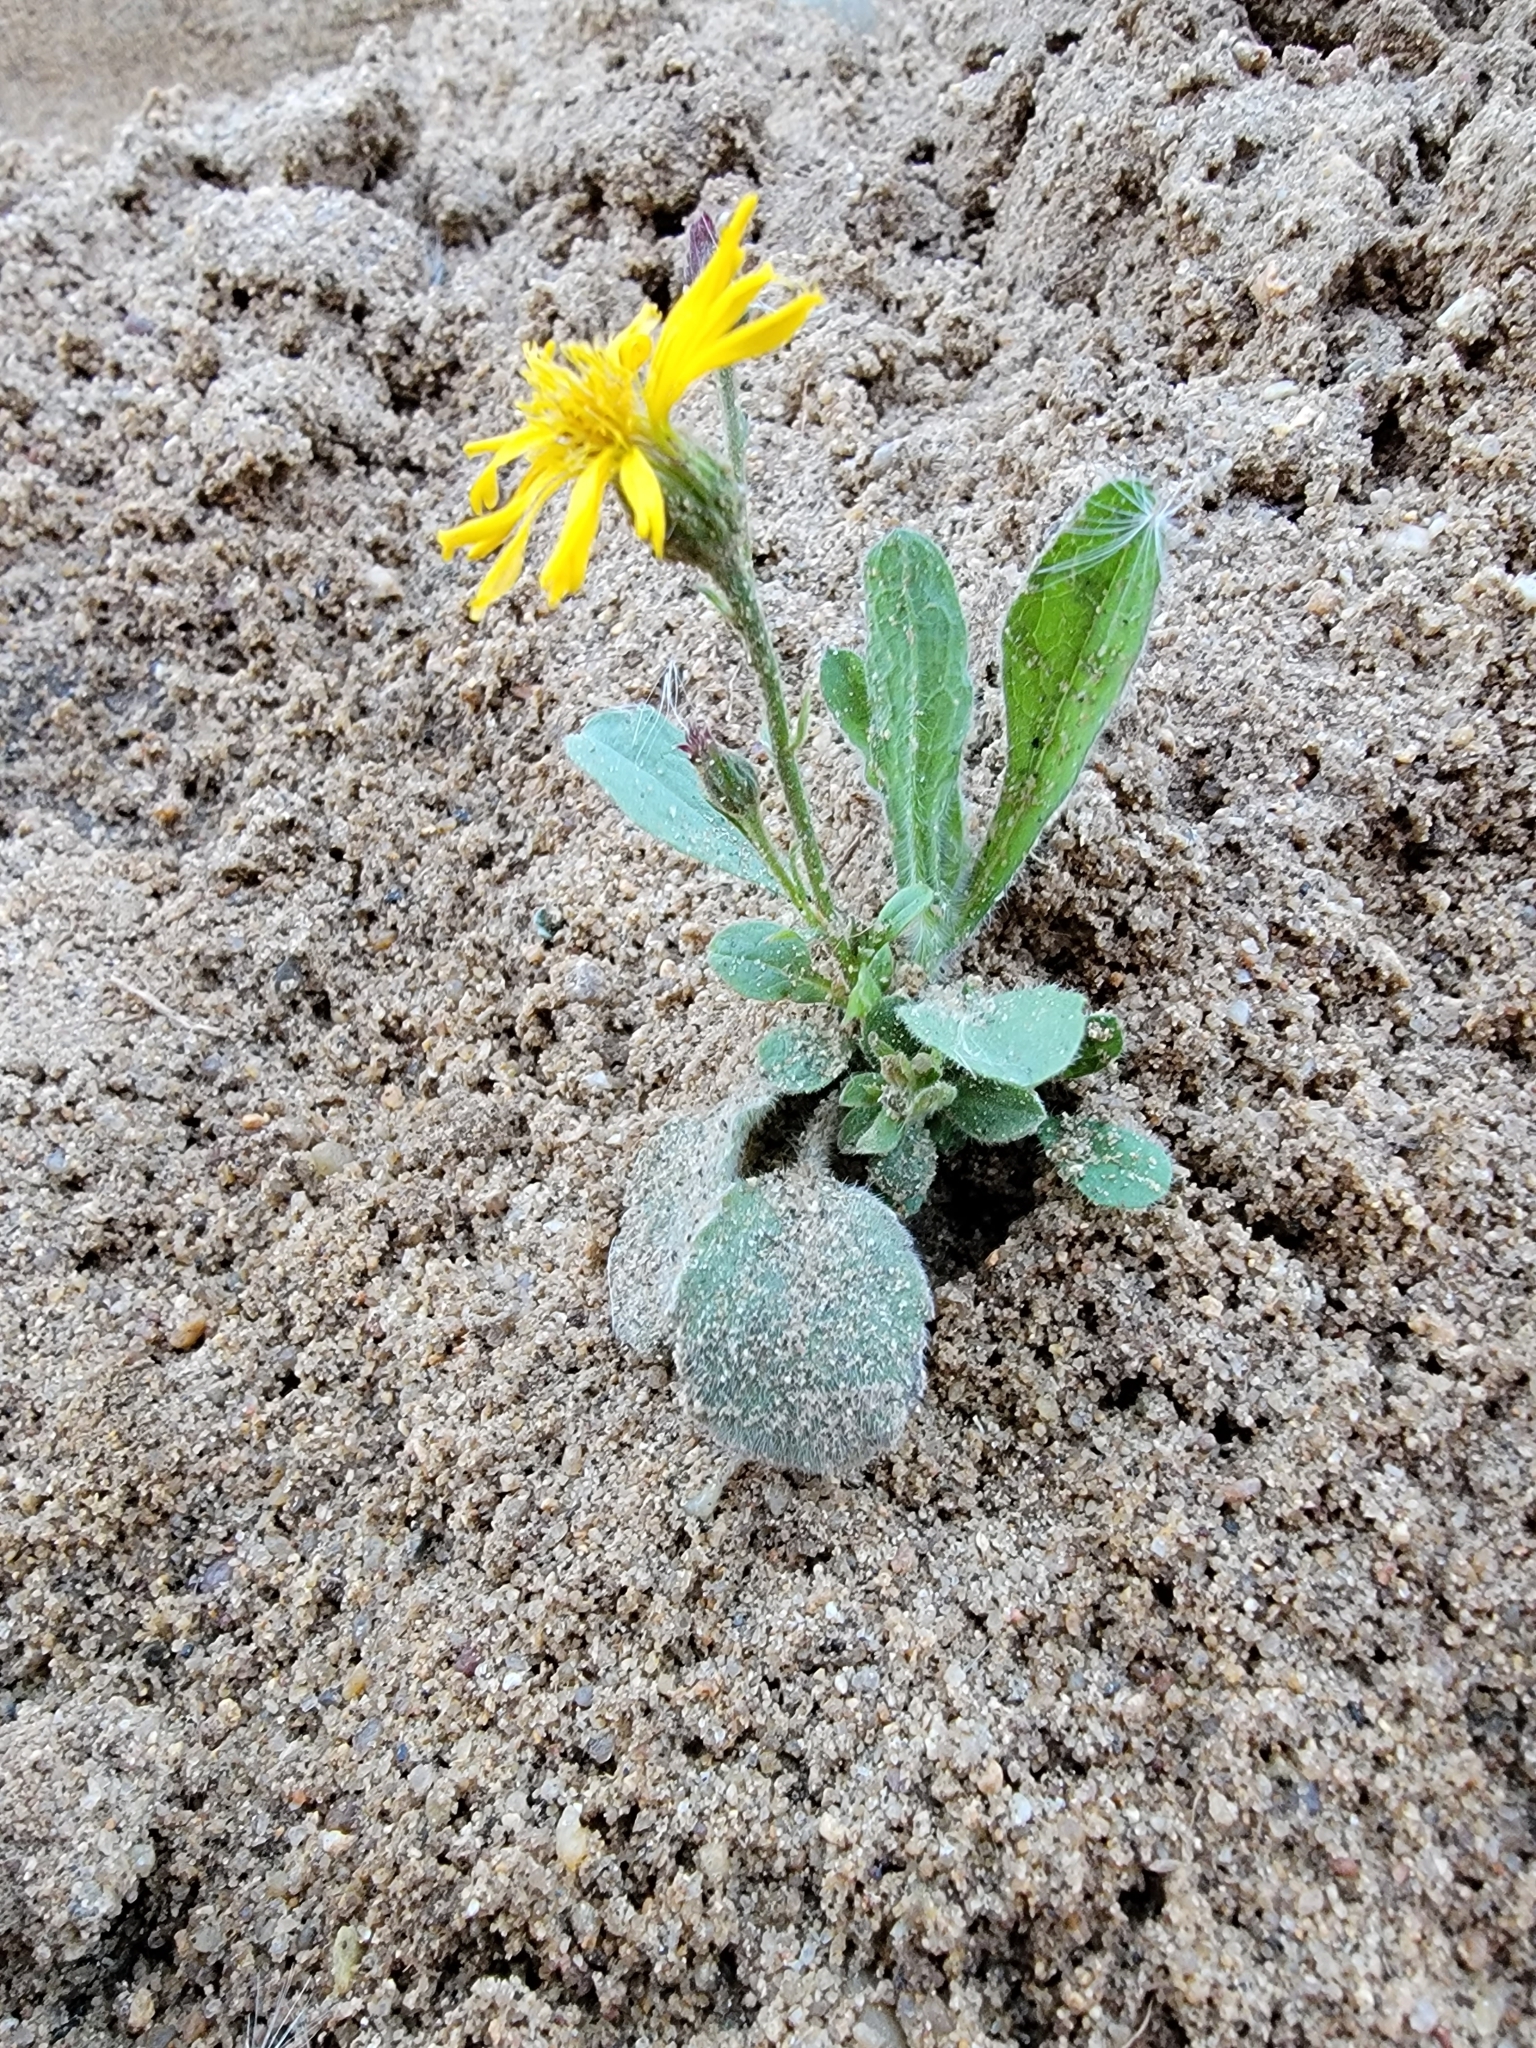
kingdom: Plantae
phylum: Tracheophyta
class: Magnoliopsida
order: Asterales
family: Asteraceae
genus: Heterotheca
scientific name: Heterotheca grandiflora
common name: Telegraphweed
